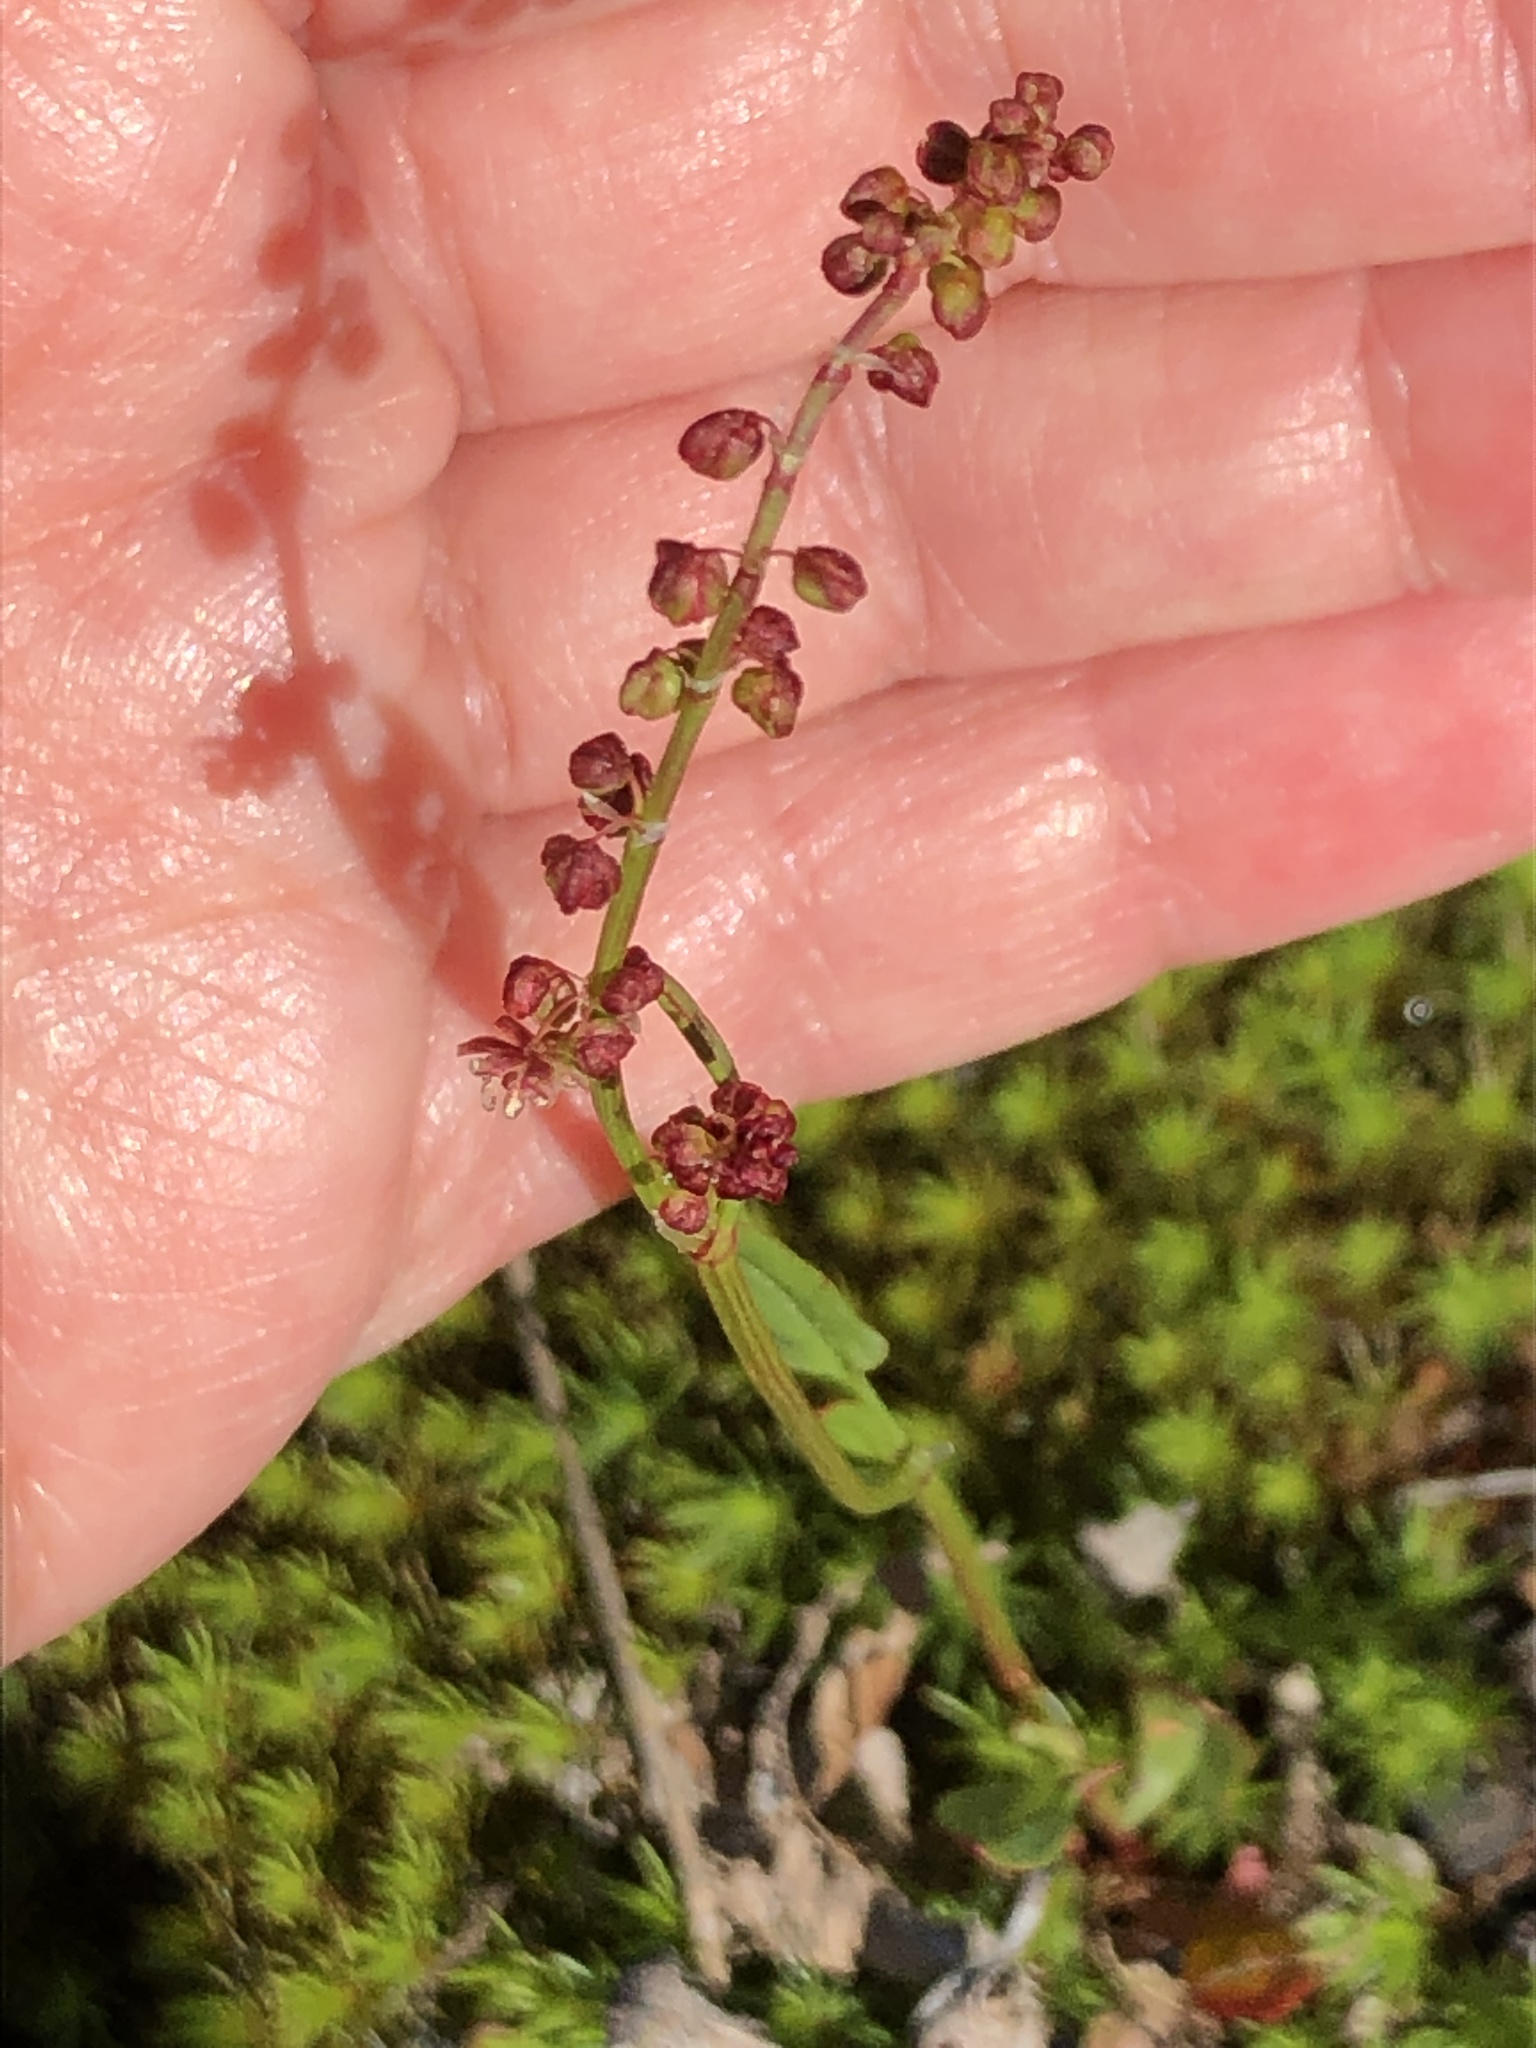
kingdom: Plantae
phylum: Tracheophyta
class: Magnoliopsida
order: Caryophyllales
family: Polygonaceae
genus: Rumex
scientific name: Rumex acetosella
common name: Common sheep sorrel
